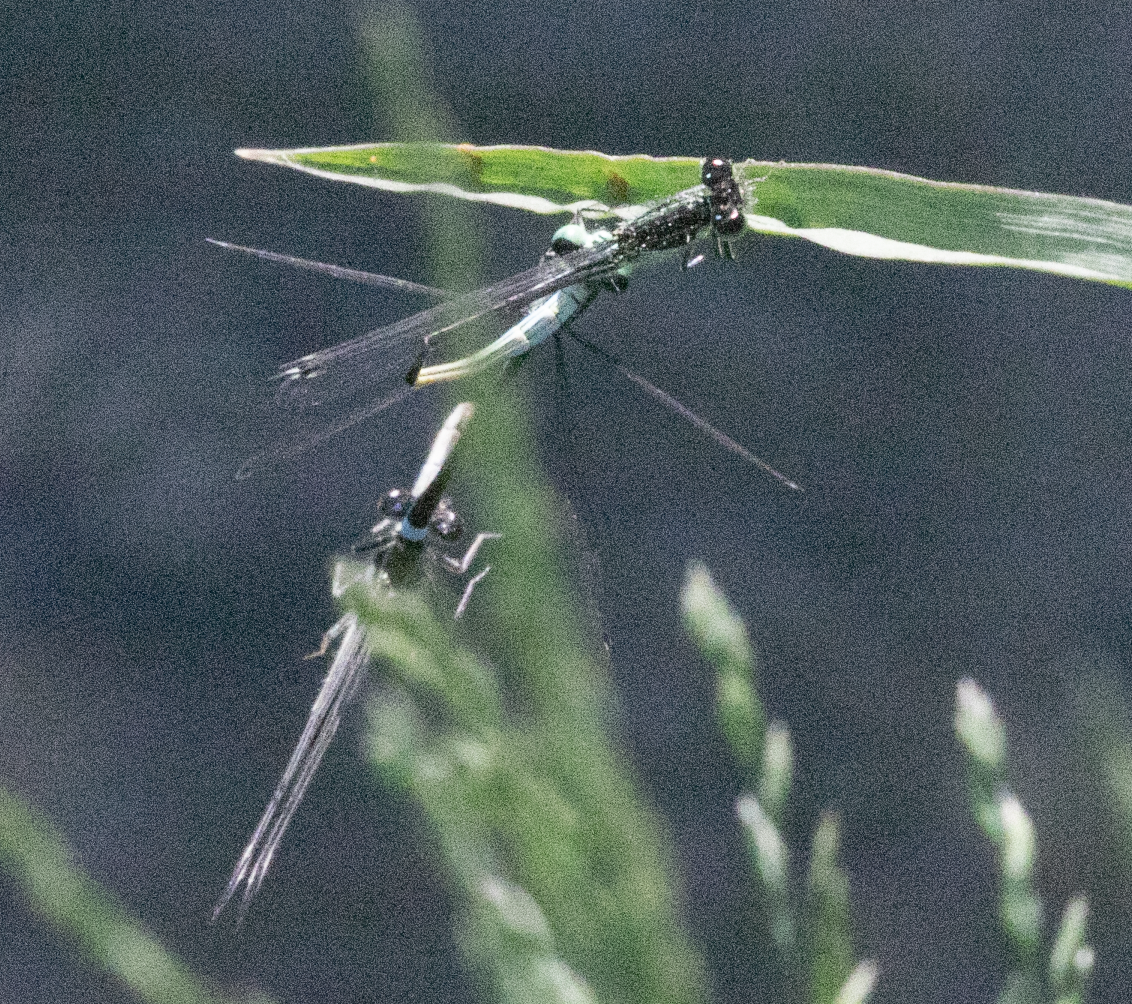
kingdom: Animalia
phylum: Arthropoda
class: Insecta
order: Odonata
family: Coenagrionidae
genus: Ischnura
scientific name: Ischnura elegans
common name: Blue-tailed damselfly
